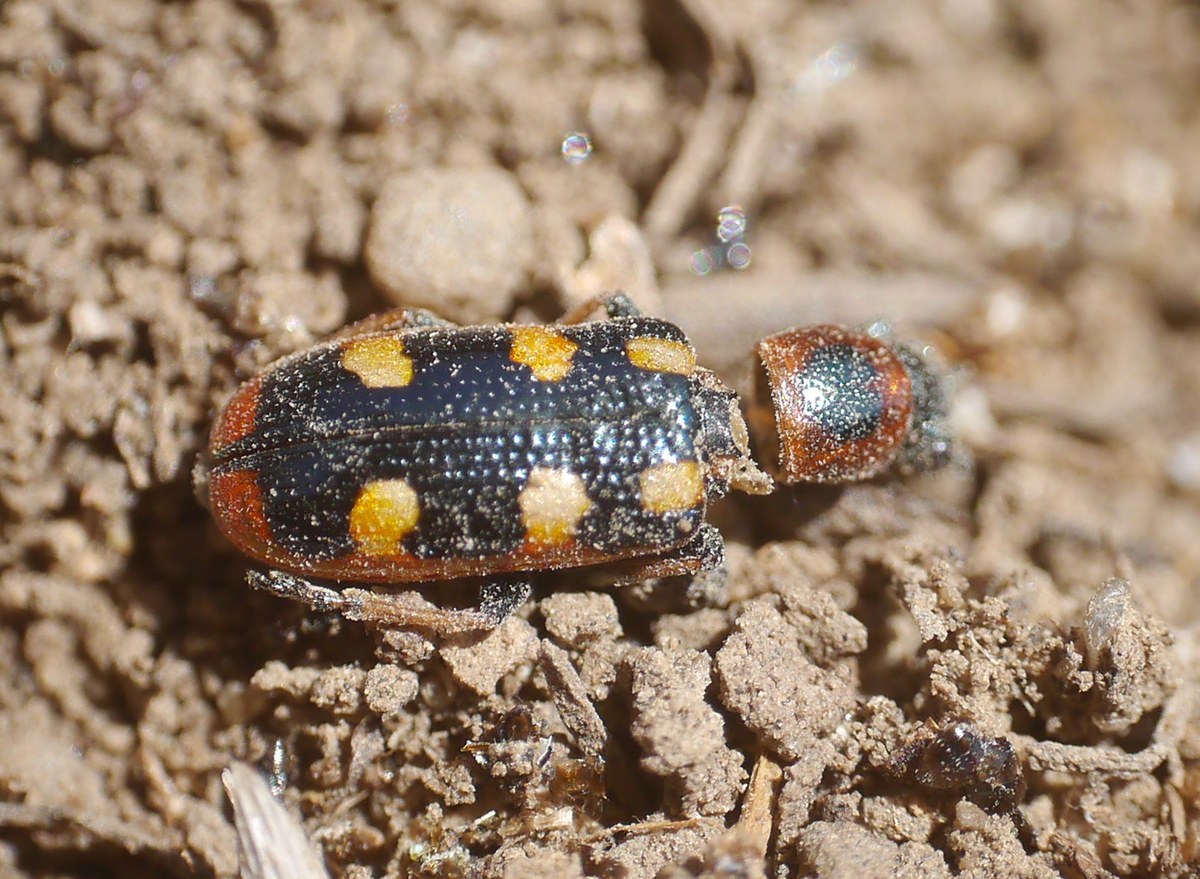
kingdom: Animalia
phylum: Arthropoda
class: Insecta
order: Coleoptera
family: Chrysomelidae
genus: Crioceris
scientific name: Crioceris asparagi
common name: Asparagus beetle
